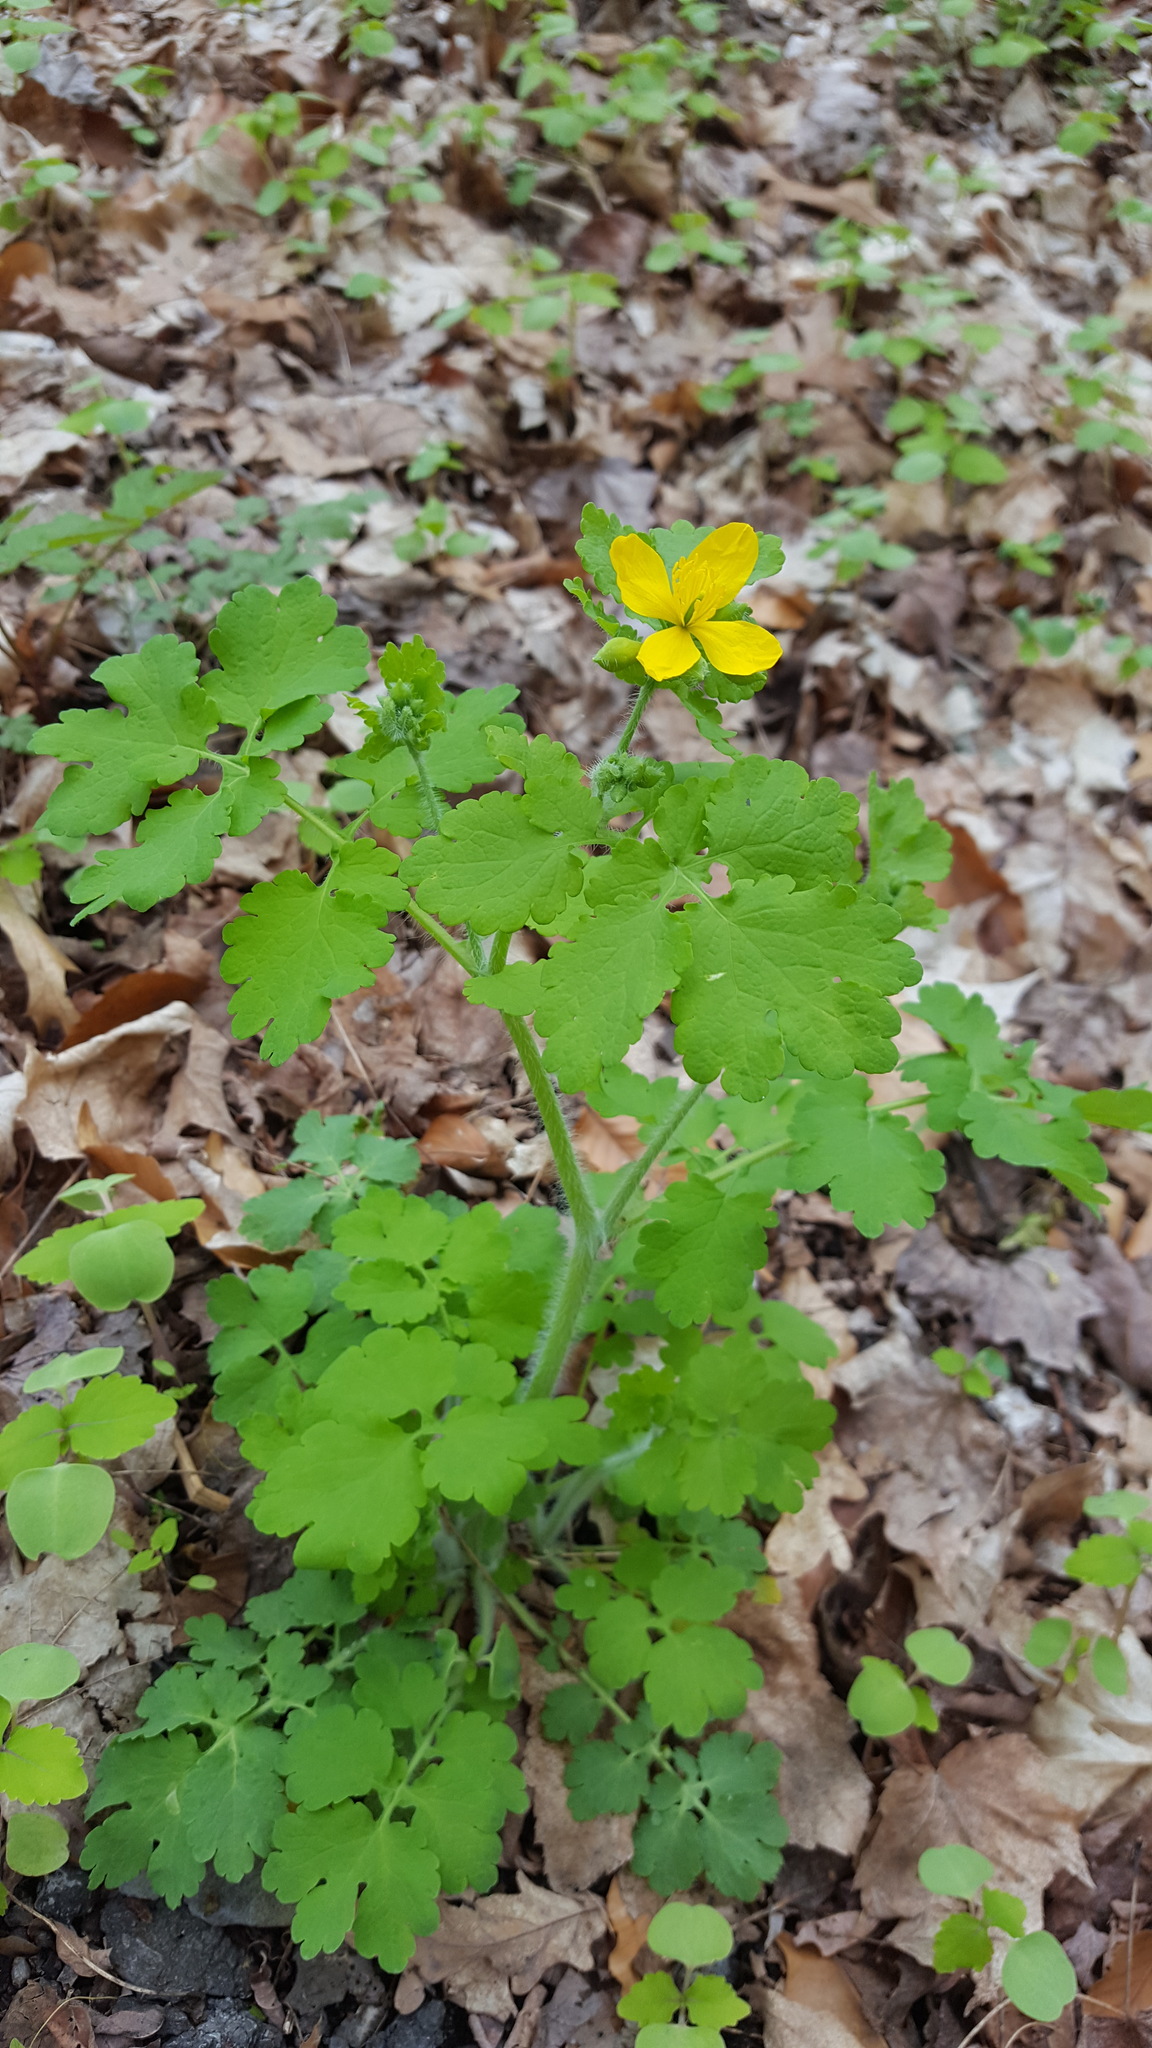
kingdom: Plantae
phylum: Tracheophyta
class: Magnoliopsida
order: Ranunculales
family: Papaveraceae
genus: Chelidonium
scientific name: Chelidonium majus
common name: Greater celandine
